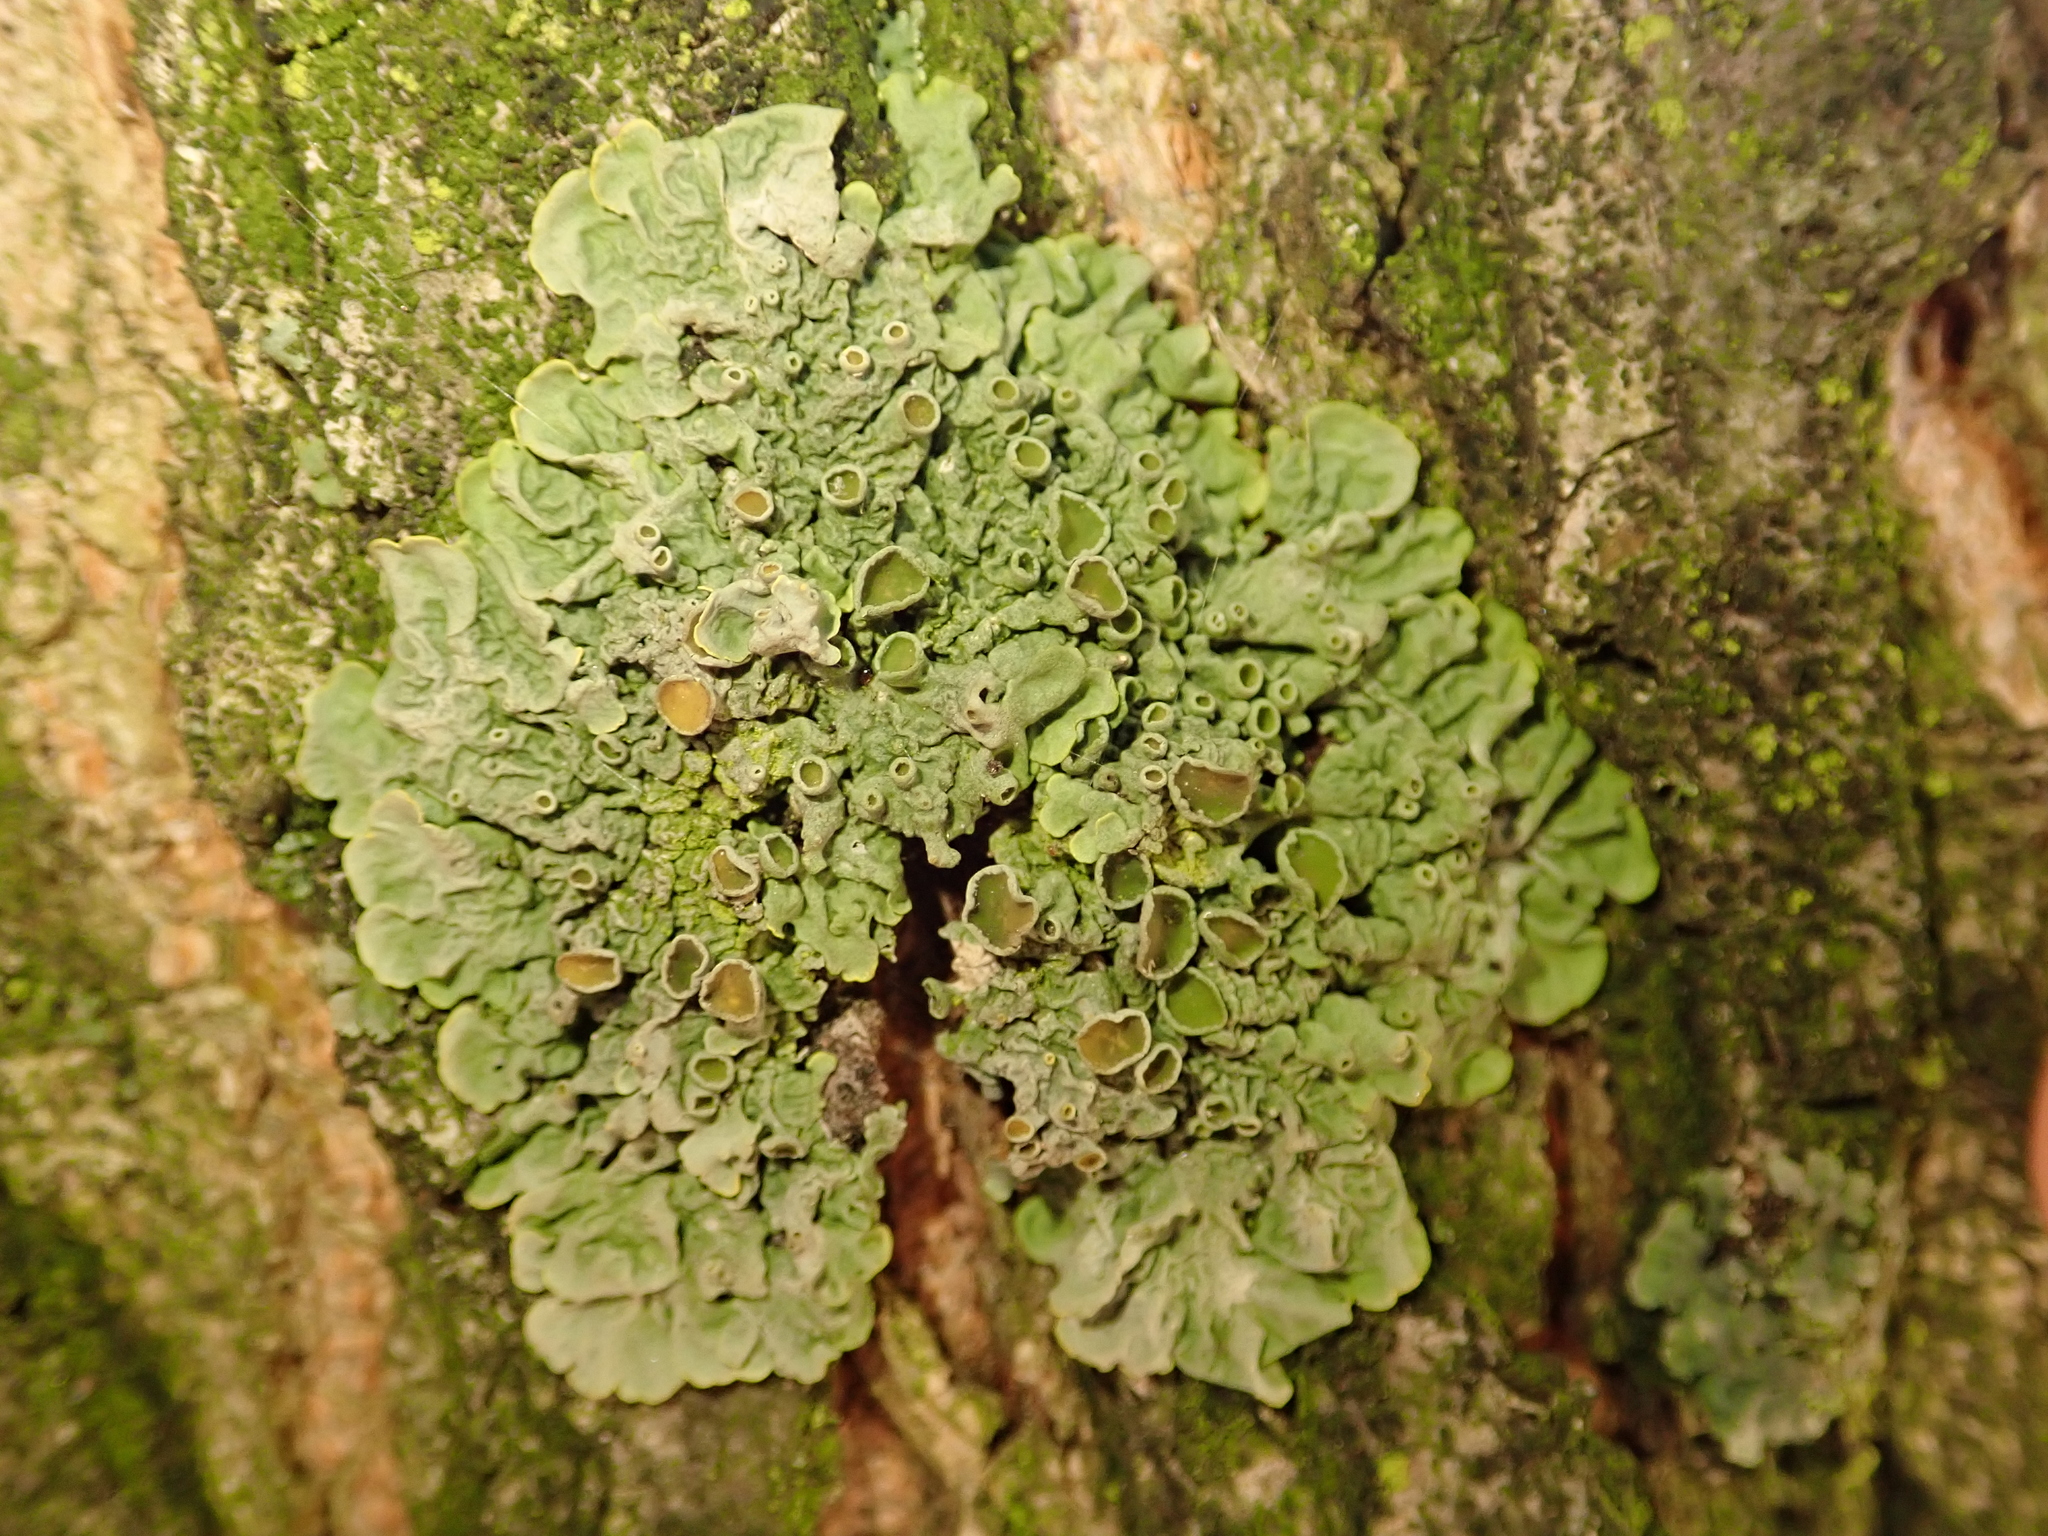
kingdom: Fungi
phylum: Ascomycota
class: Lecanoromycetes
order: Teloschistales
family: Teloschistaceae
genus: Xanthoria
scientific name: Xanthoria parietina
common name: Common orange lichen
